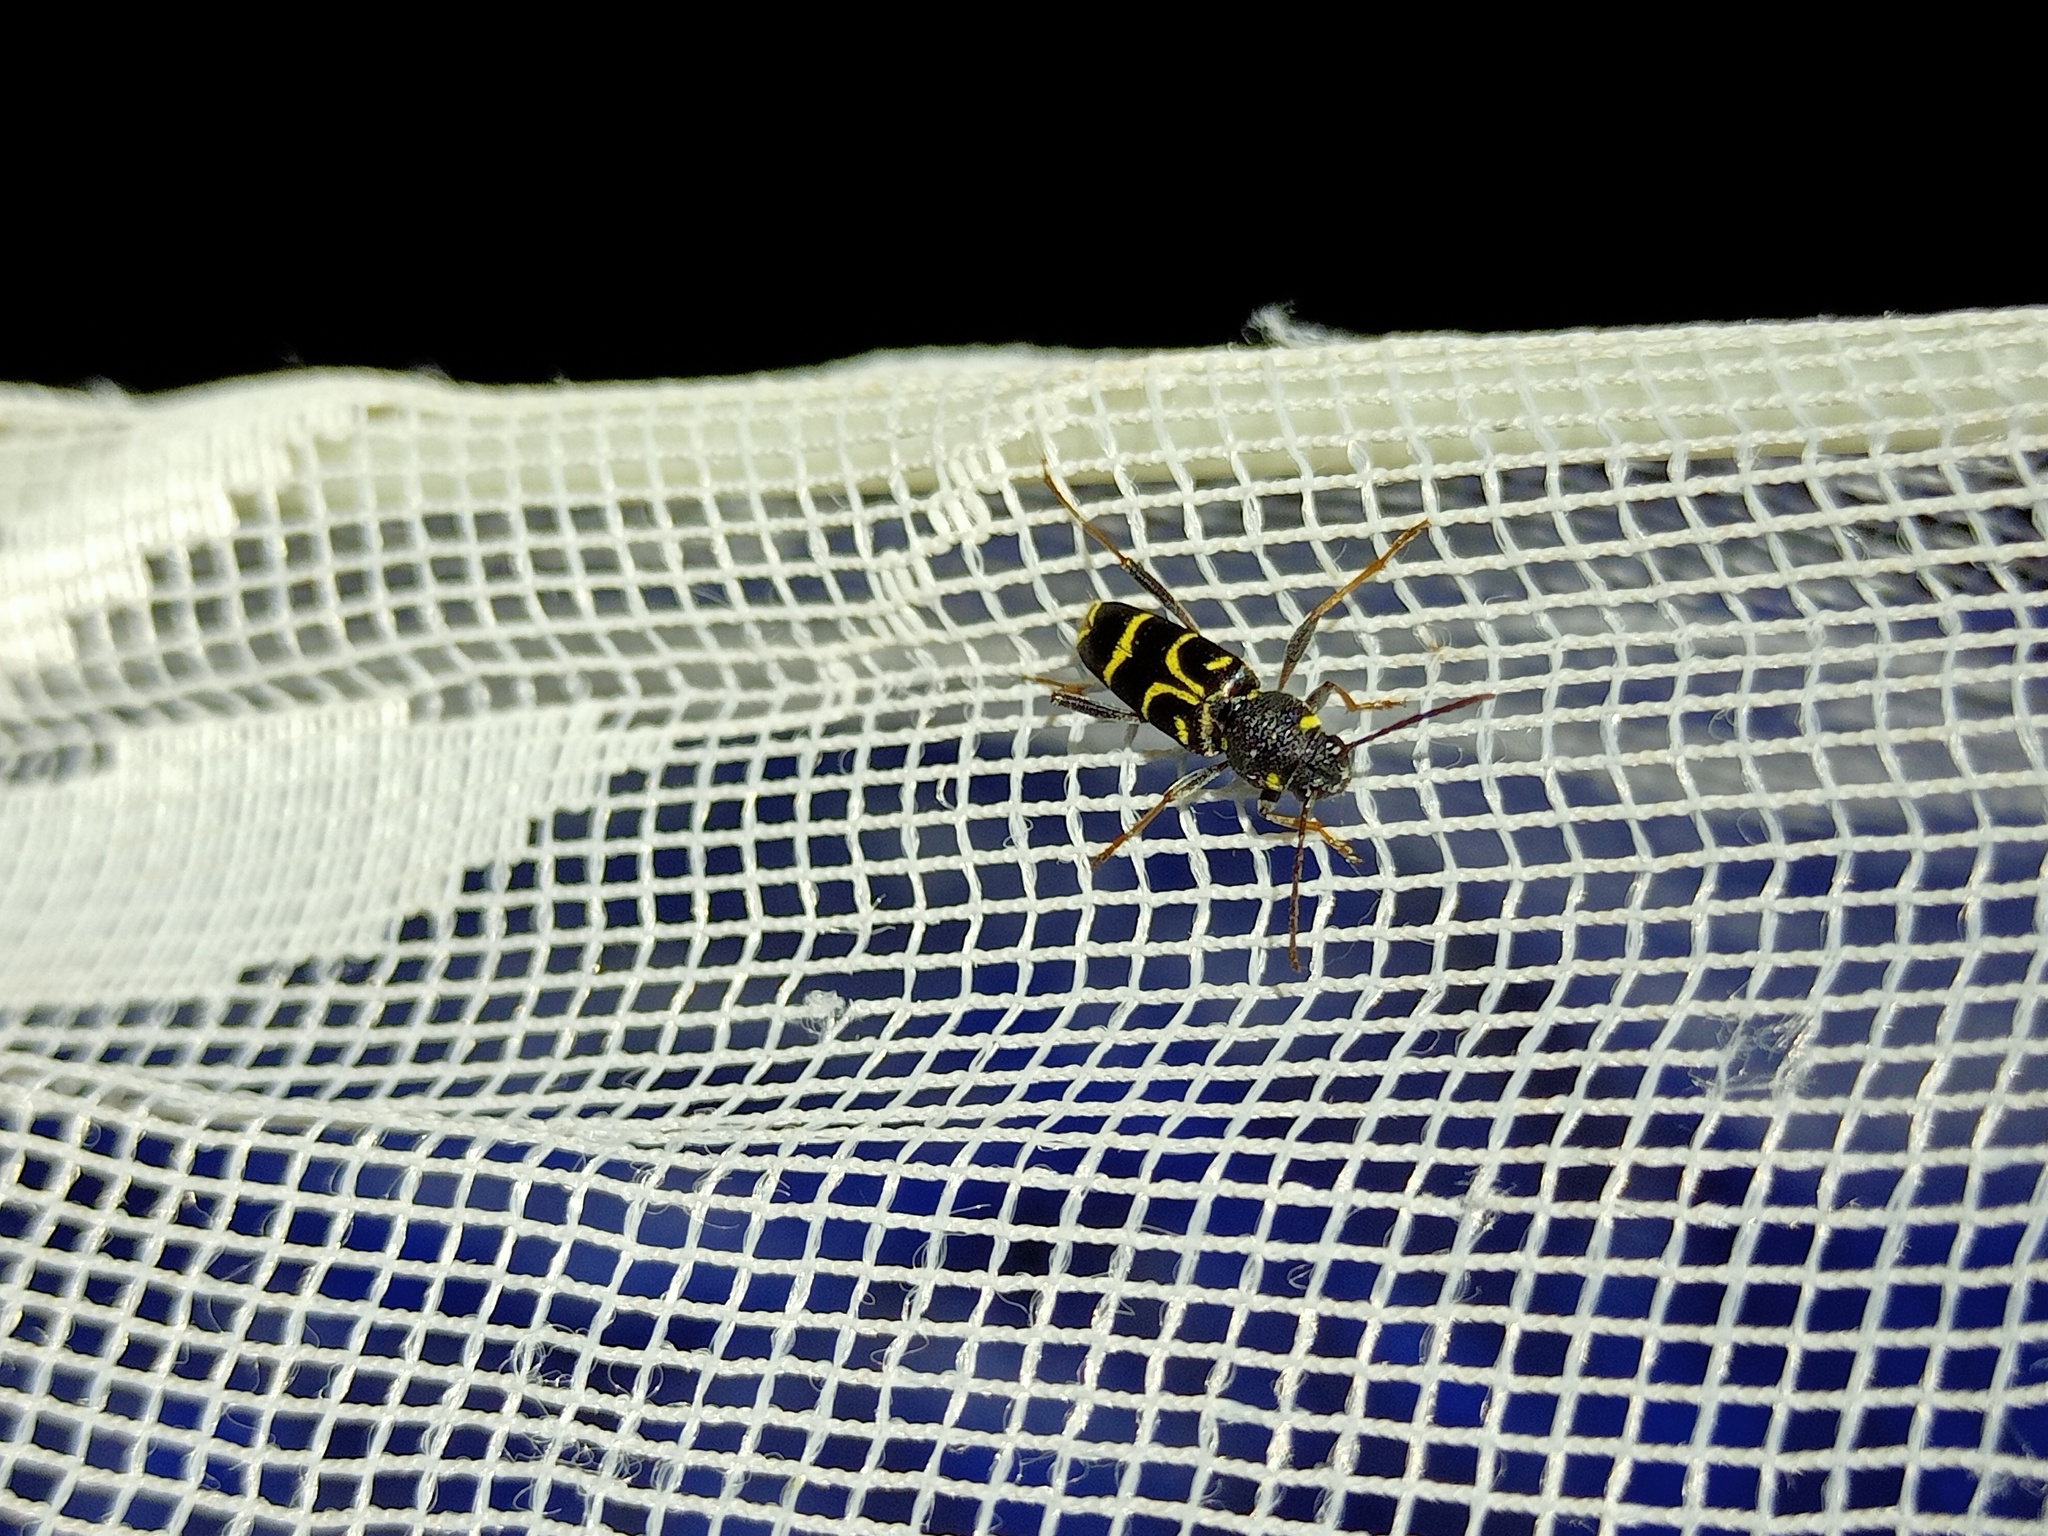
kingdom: Animalia
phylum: Arthropoda
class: Insecta
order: Coleoptera
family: Cerambycidae
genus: Xylotrechus
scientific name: Xylotrechus antilope
